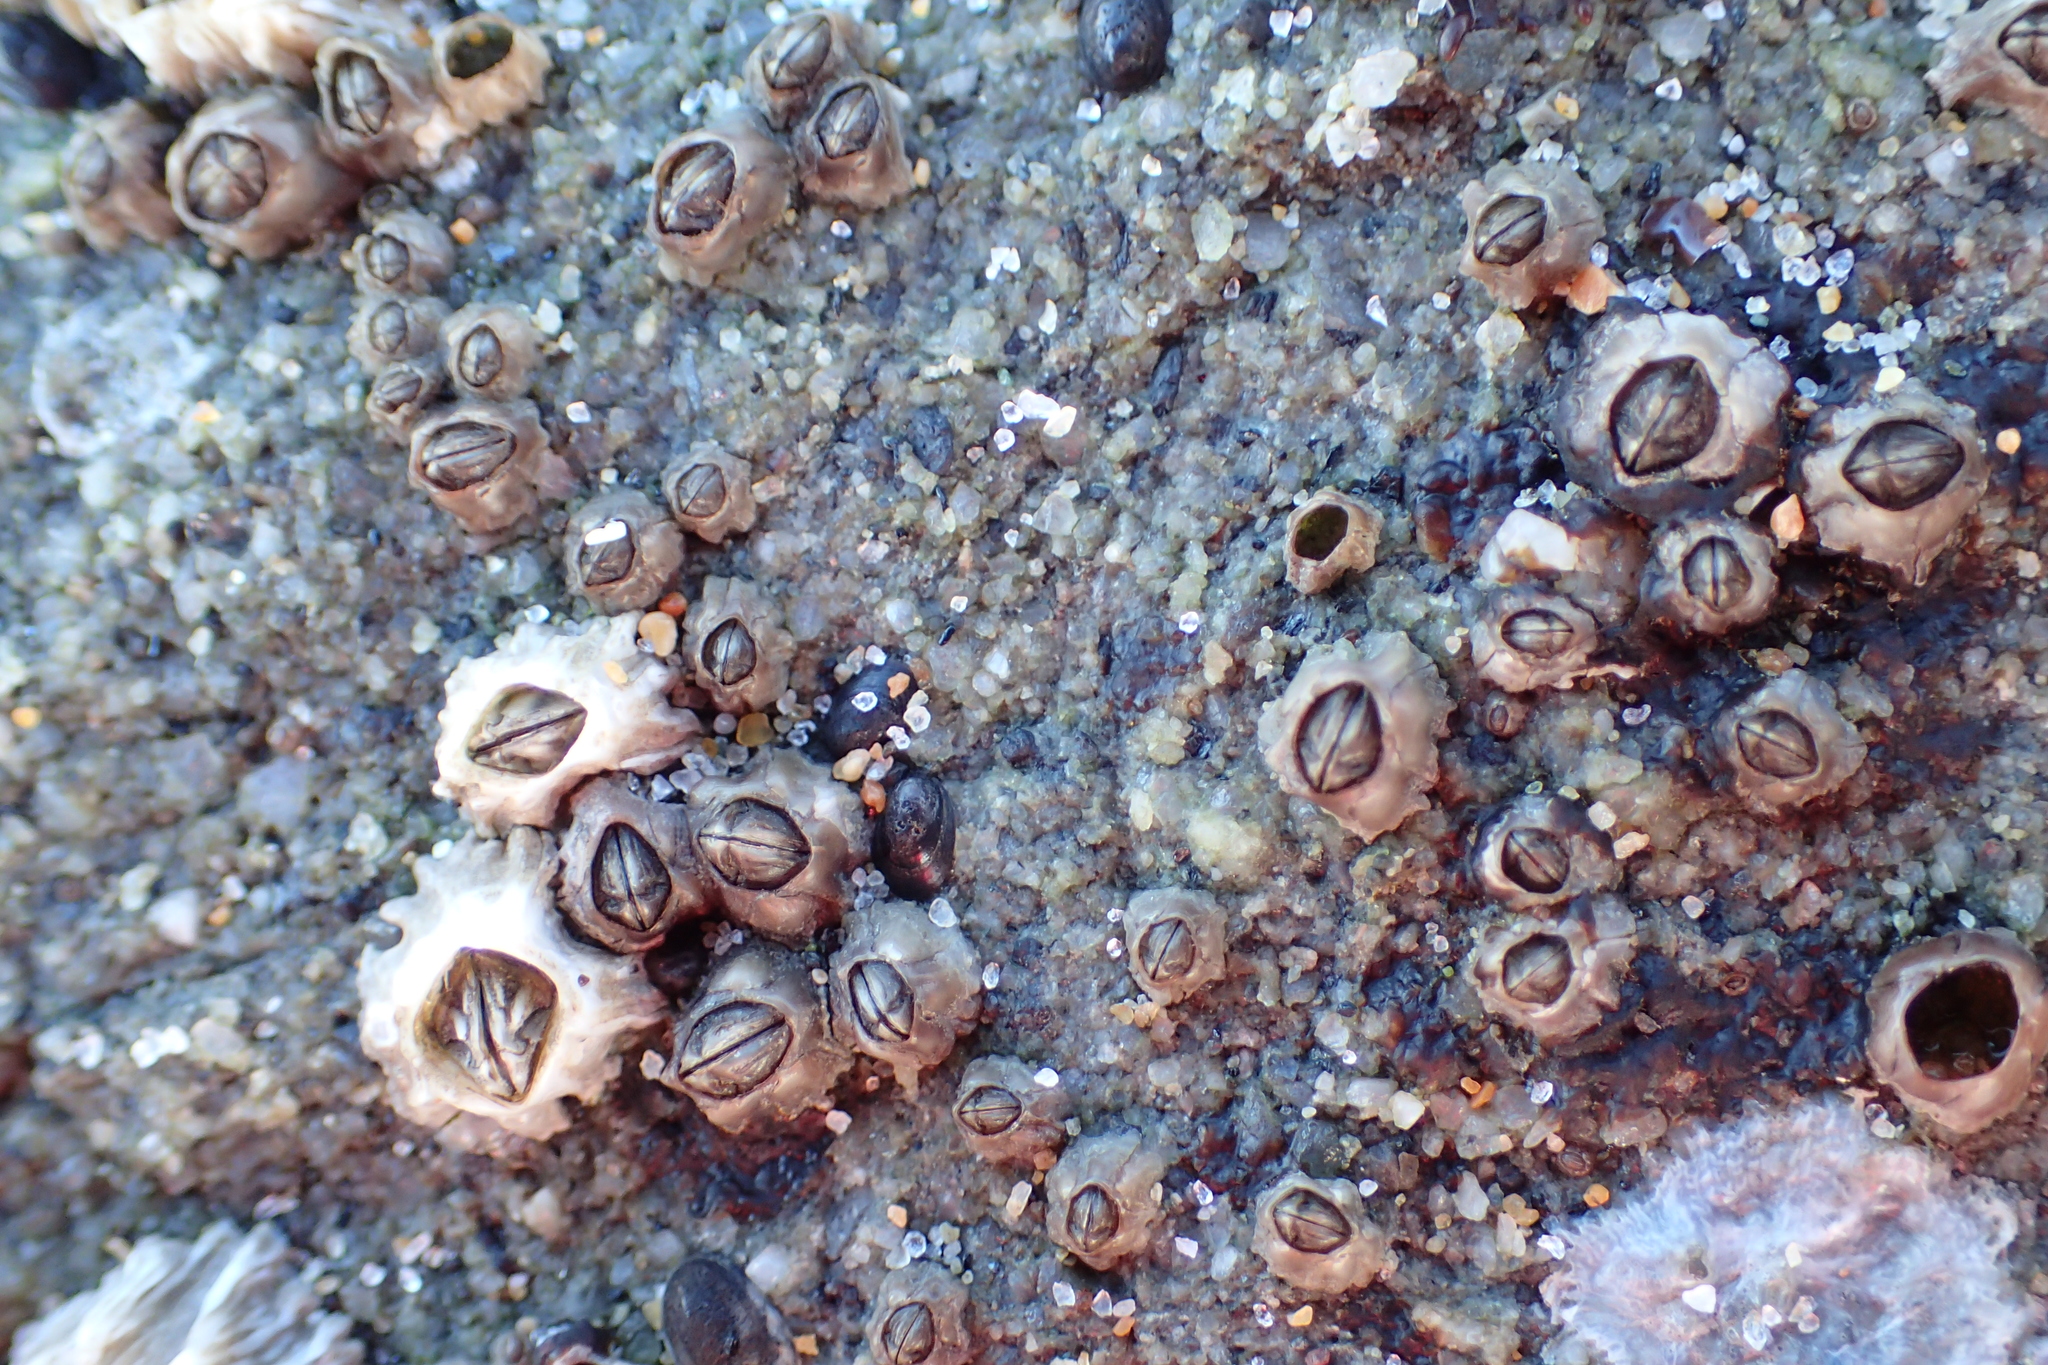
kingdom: Animalia
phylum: Arthropoda
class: Maxillopoda
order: Sessilia
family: Balanidae
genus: Balanus
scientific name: Balanus glandula
